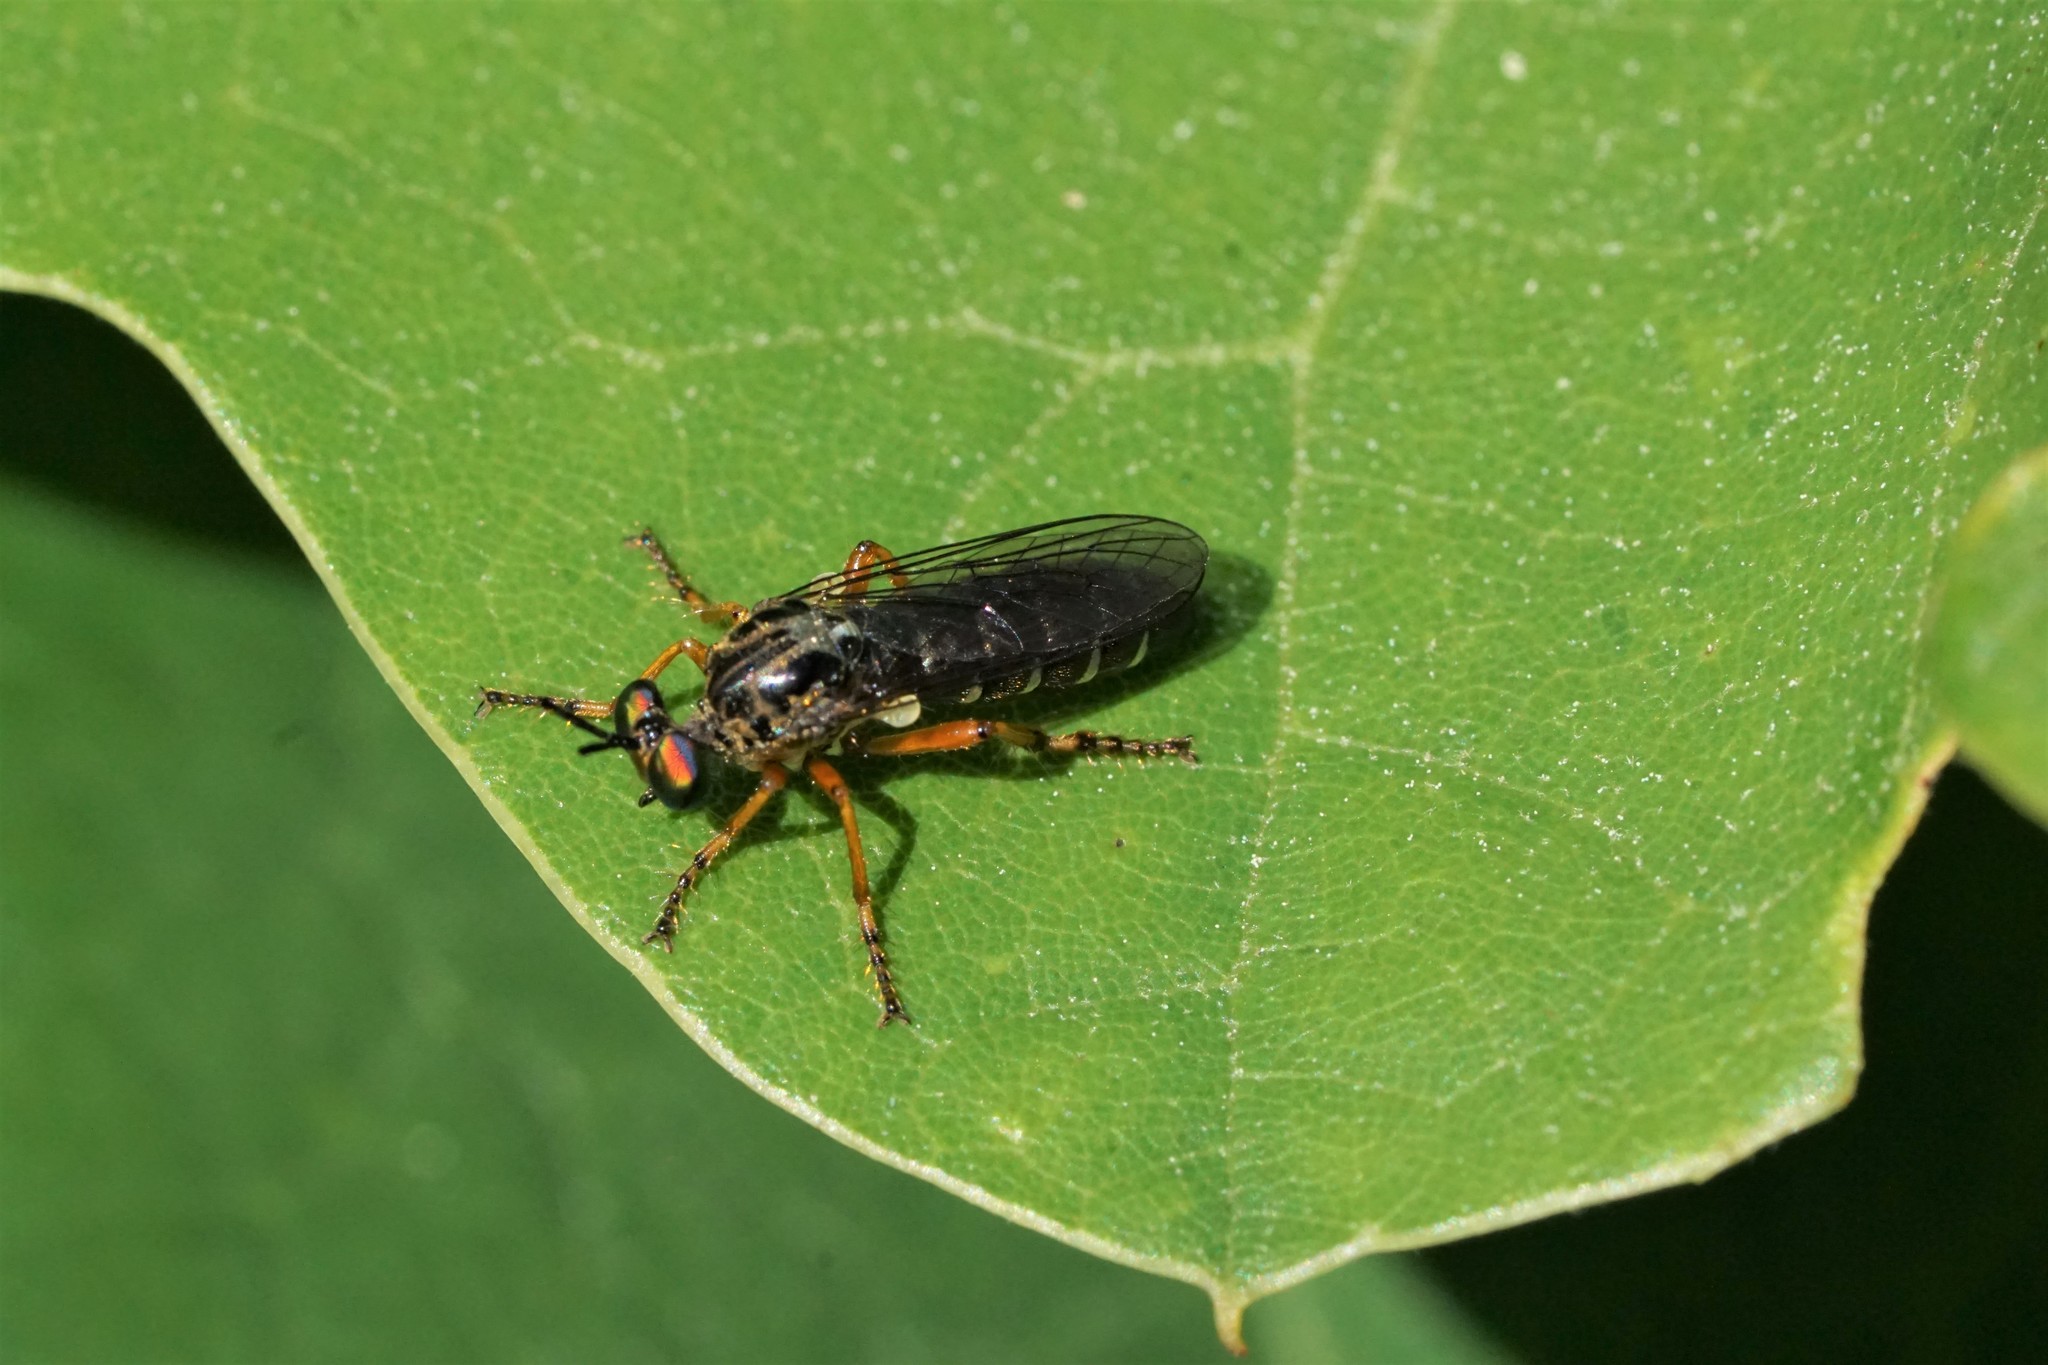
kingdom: Animalia
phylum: Arthropoda
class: Insecta
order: Diptera
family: Asilidae
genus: Taracticus
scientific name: Taracticus octopunctatus
